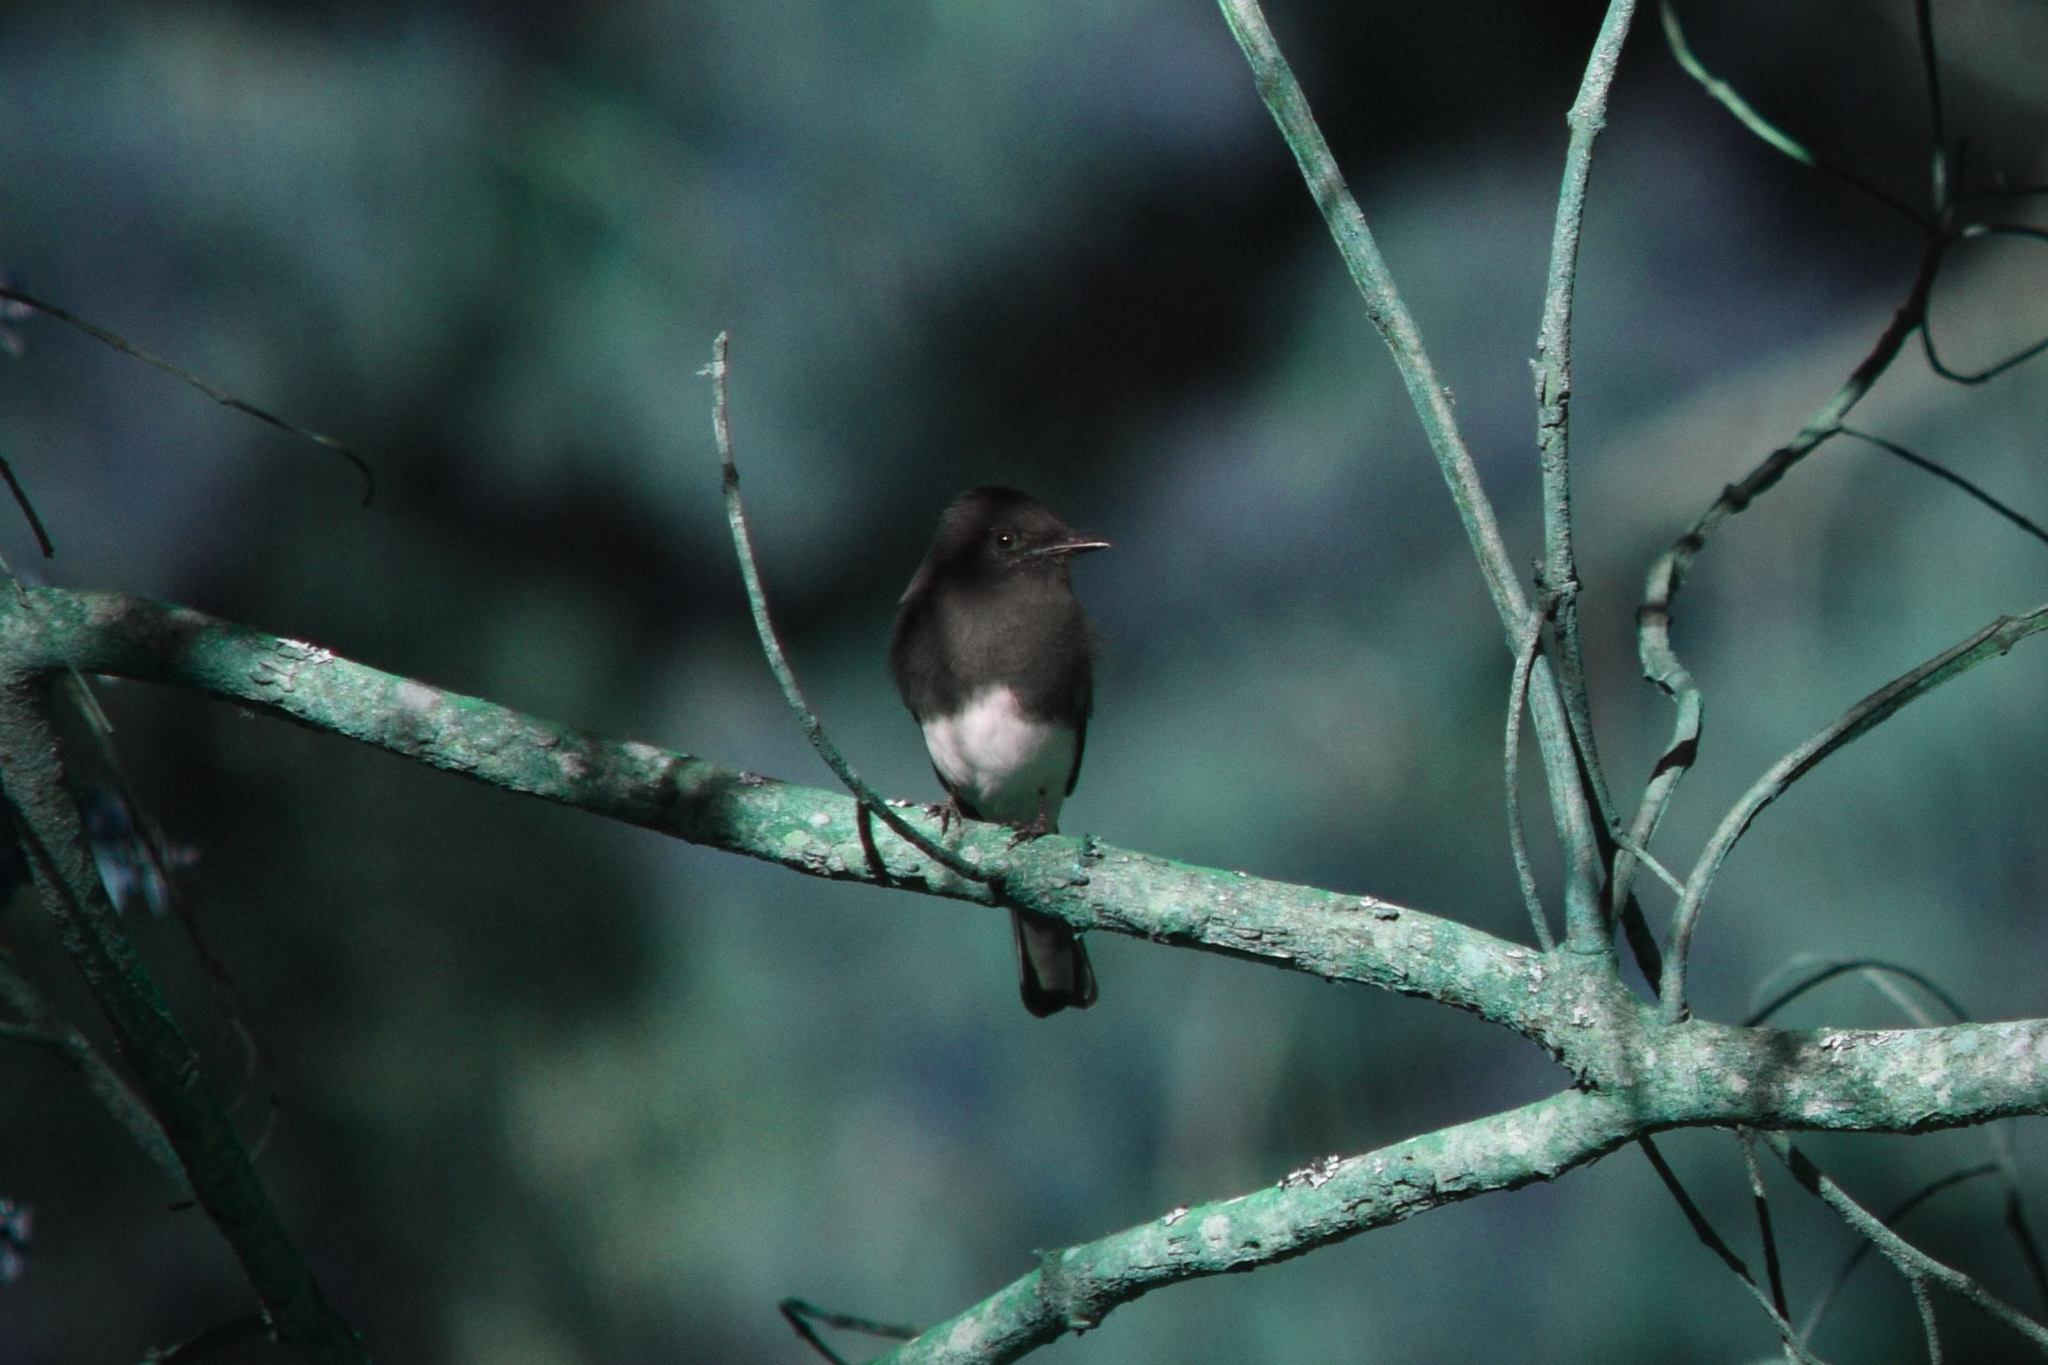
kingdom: Animalia
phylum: Chordata
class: Aves
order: Passeriformes
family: Tyrannidae
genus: Sayornis
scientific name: Sayornis nigricans
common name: Black phoebe
